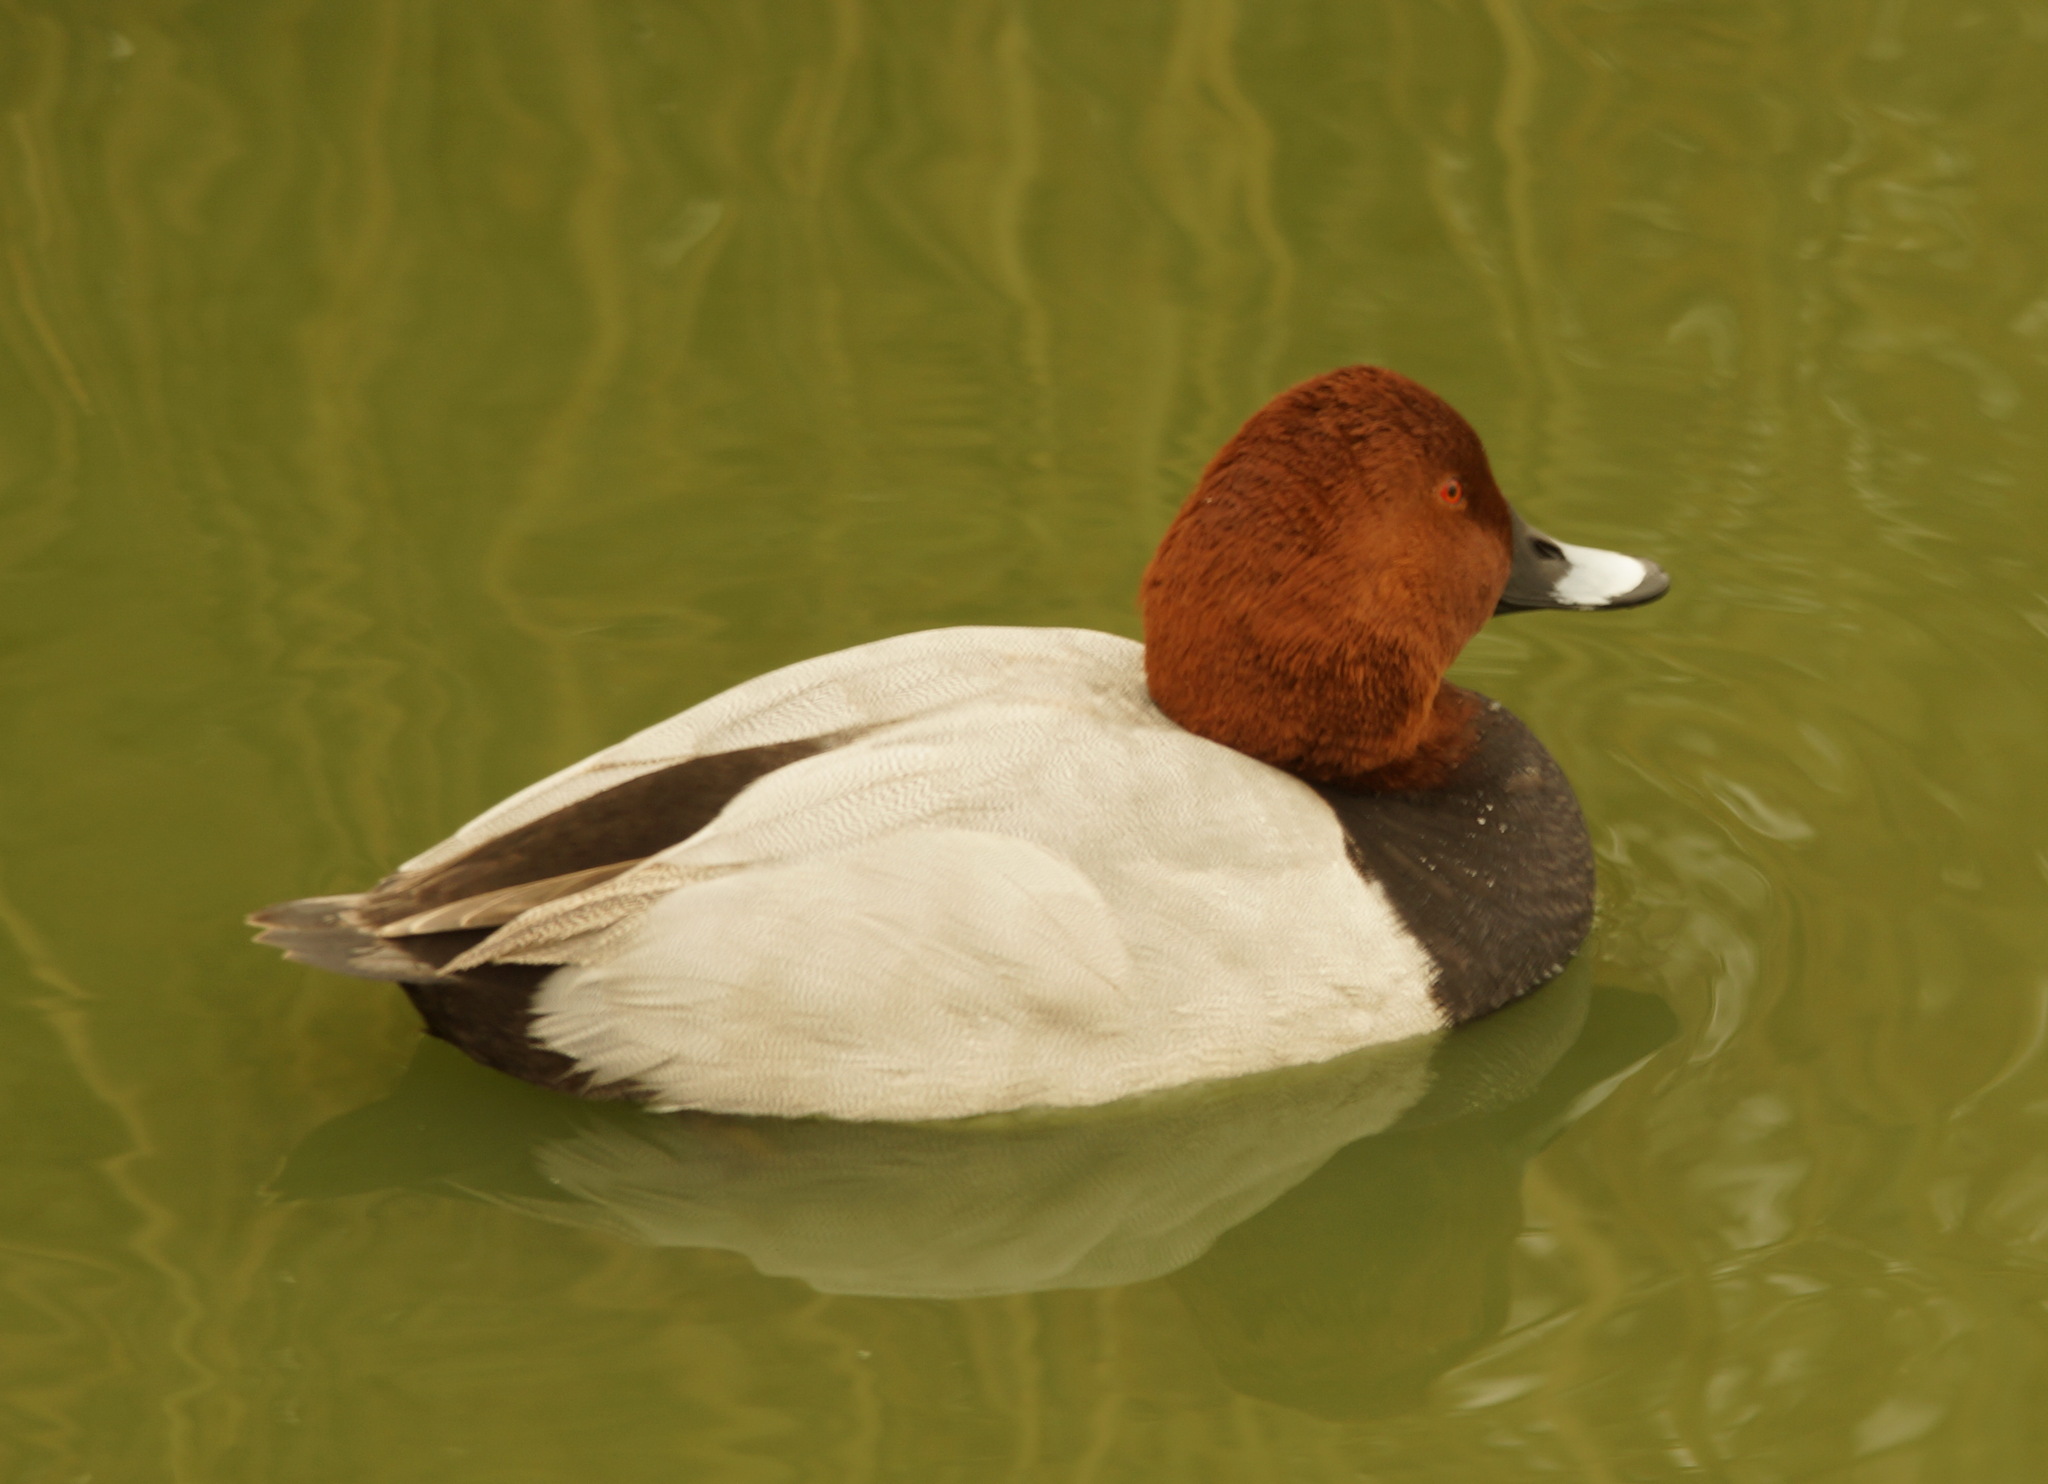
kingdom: Animalia
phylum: Chordata
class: Aves
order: Anseriformes
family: Anatidae
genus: Aythya
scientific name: Aythya ferina
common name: Common pochard
